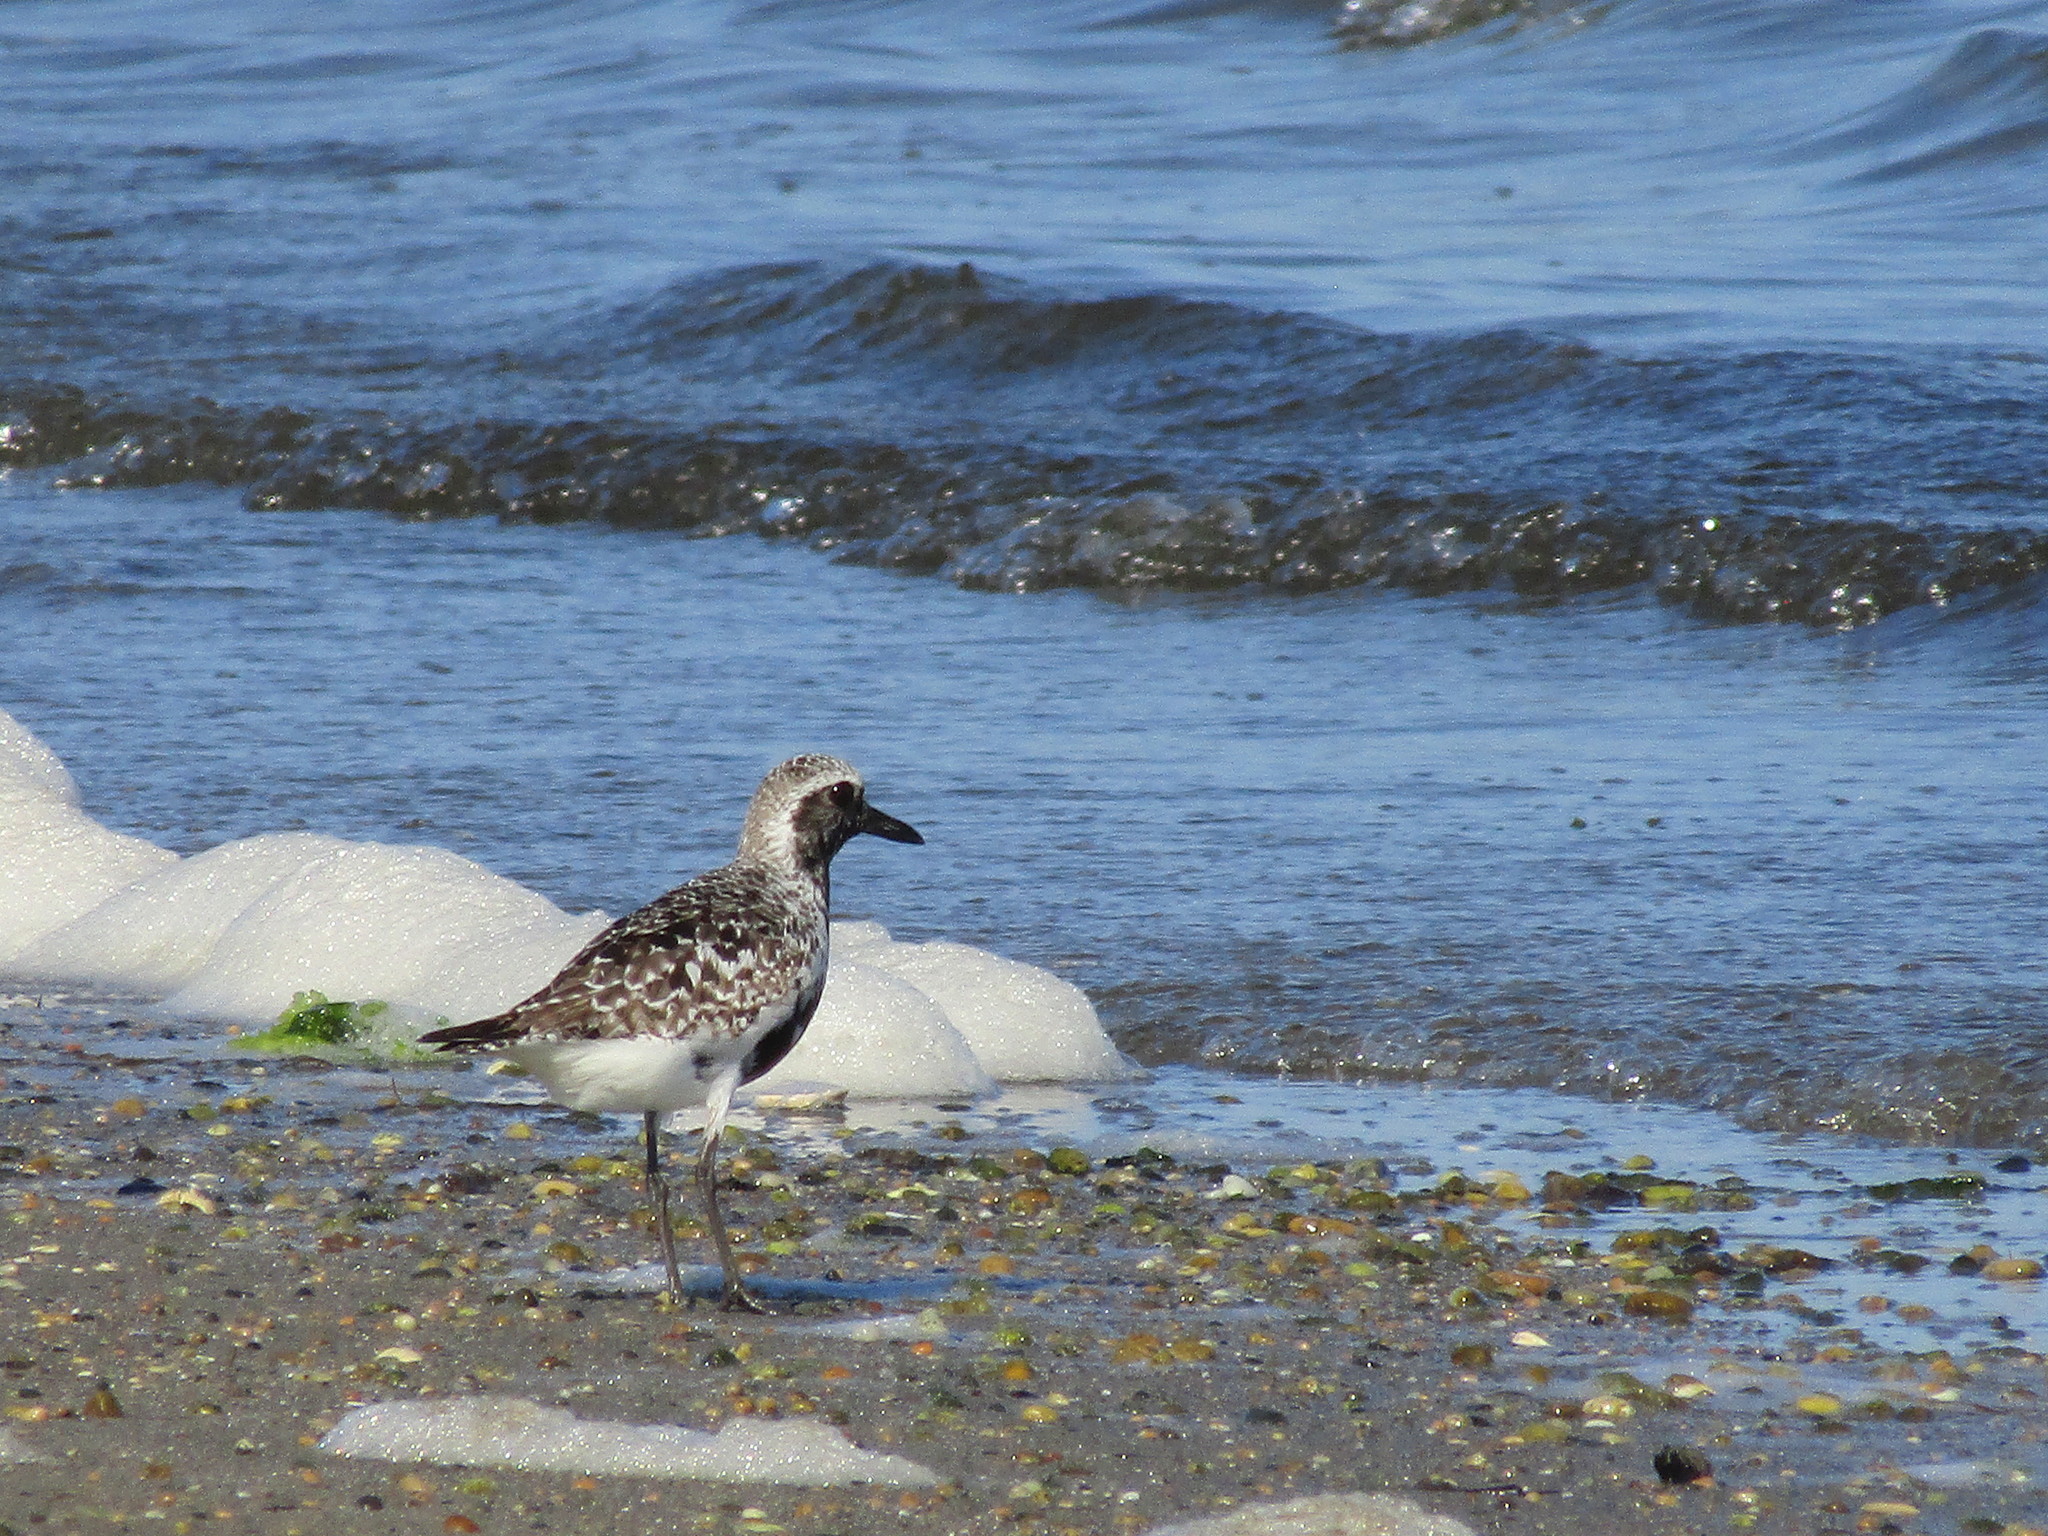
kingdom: Animalia
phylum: Chordata
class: Aves
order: Charadriiformes
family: Charadriidae
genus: Pluvialis
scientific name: Pluvialis squatarola
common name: Grey plover
